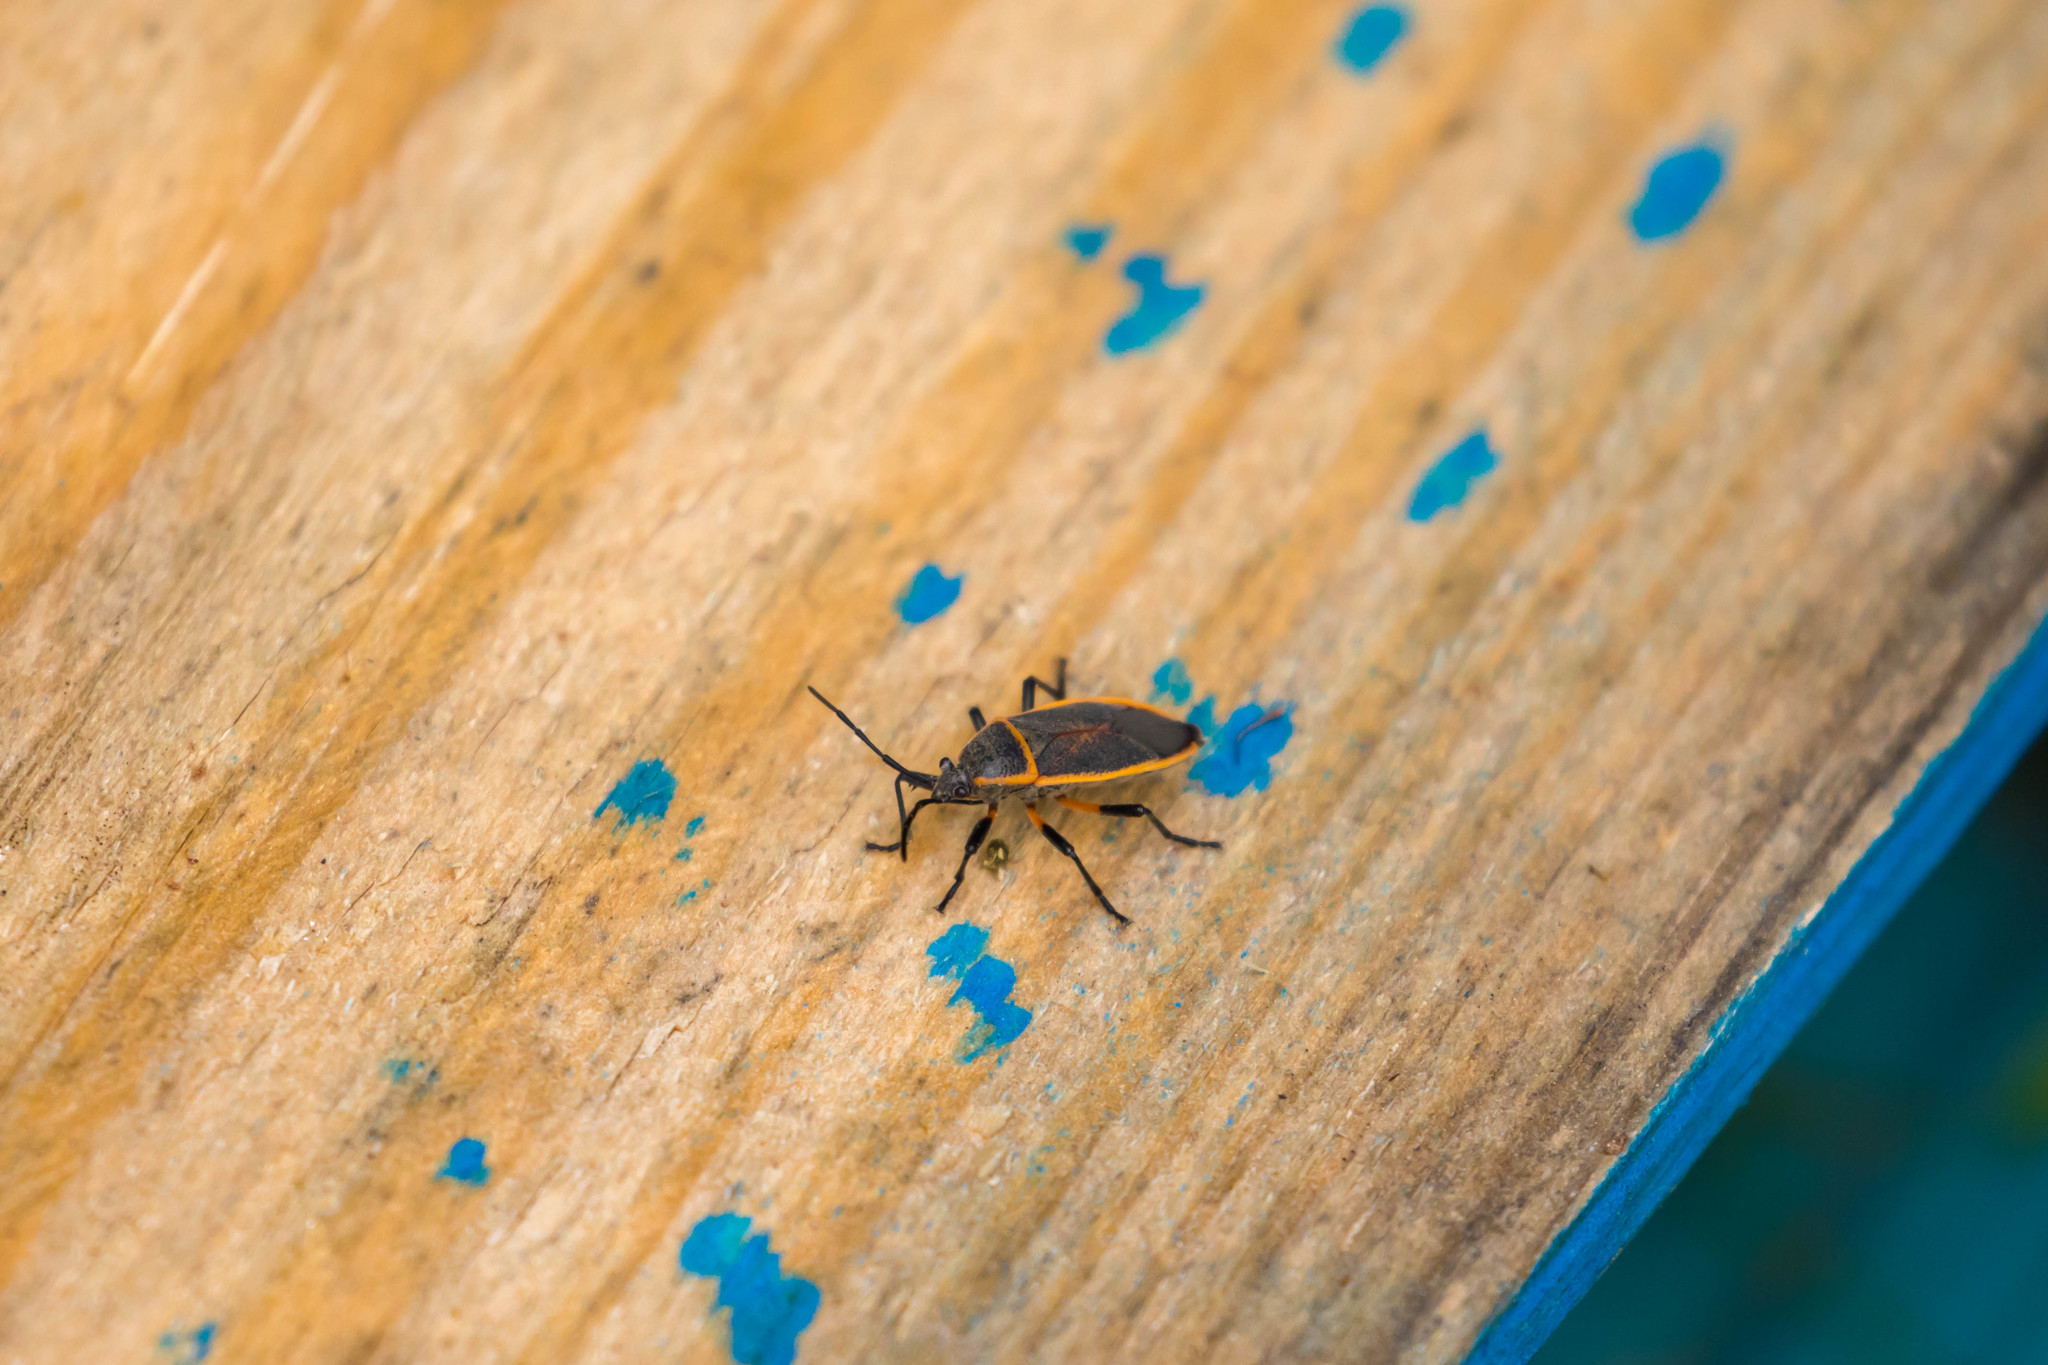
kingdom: Animalia
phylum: Arthropoda
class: Insecta
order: Hemiptera
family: Largidae
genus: Largus
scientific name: Largus succinctus
